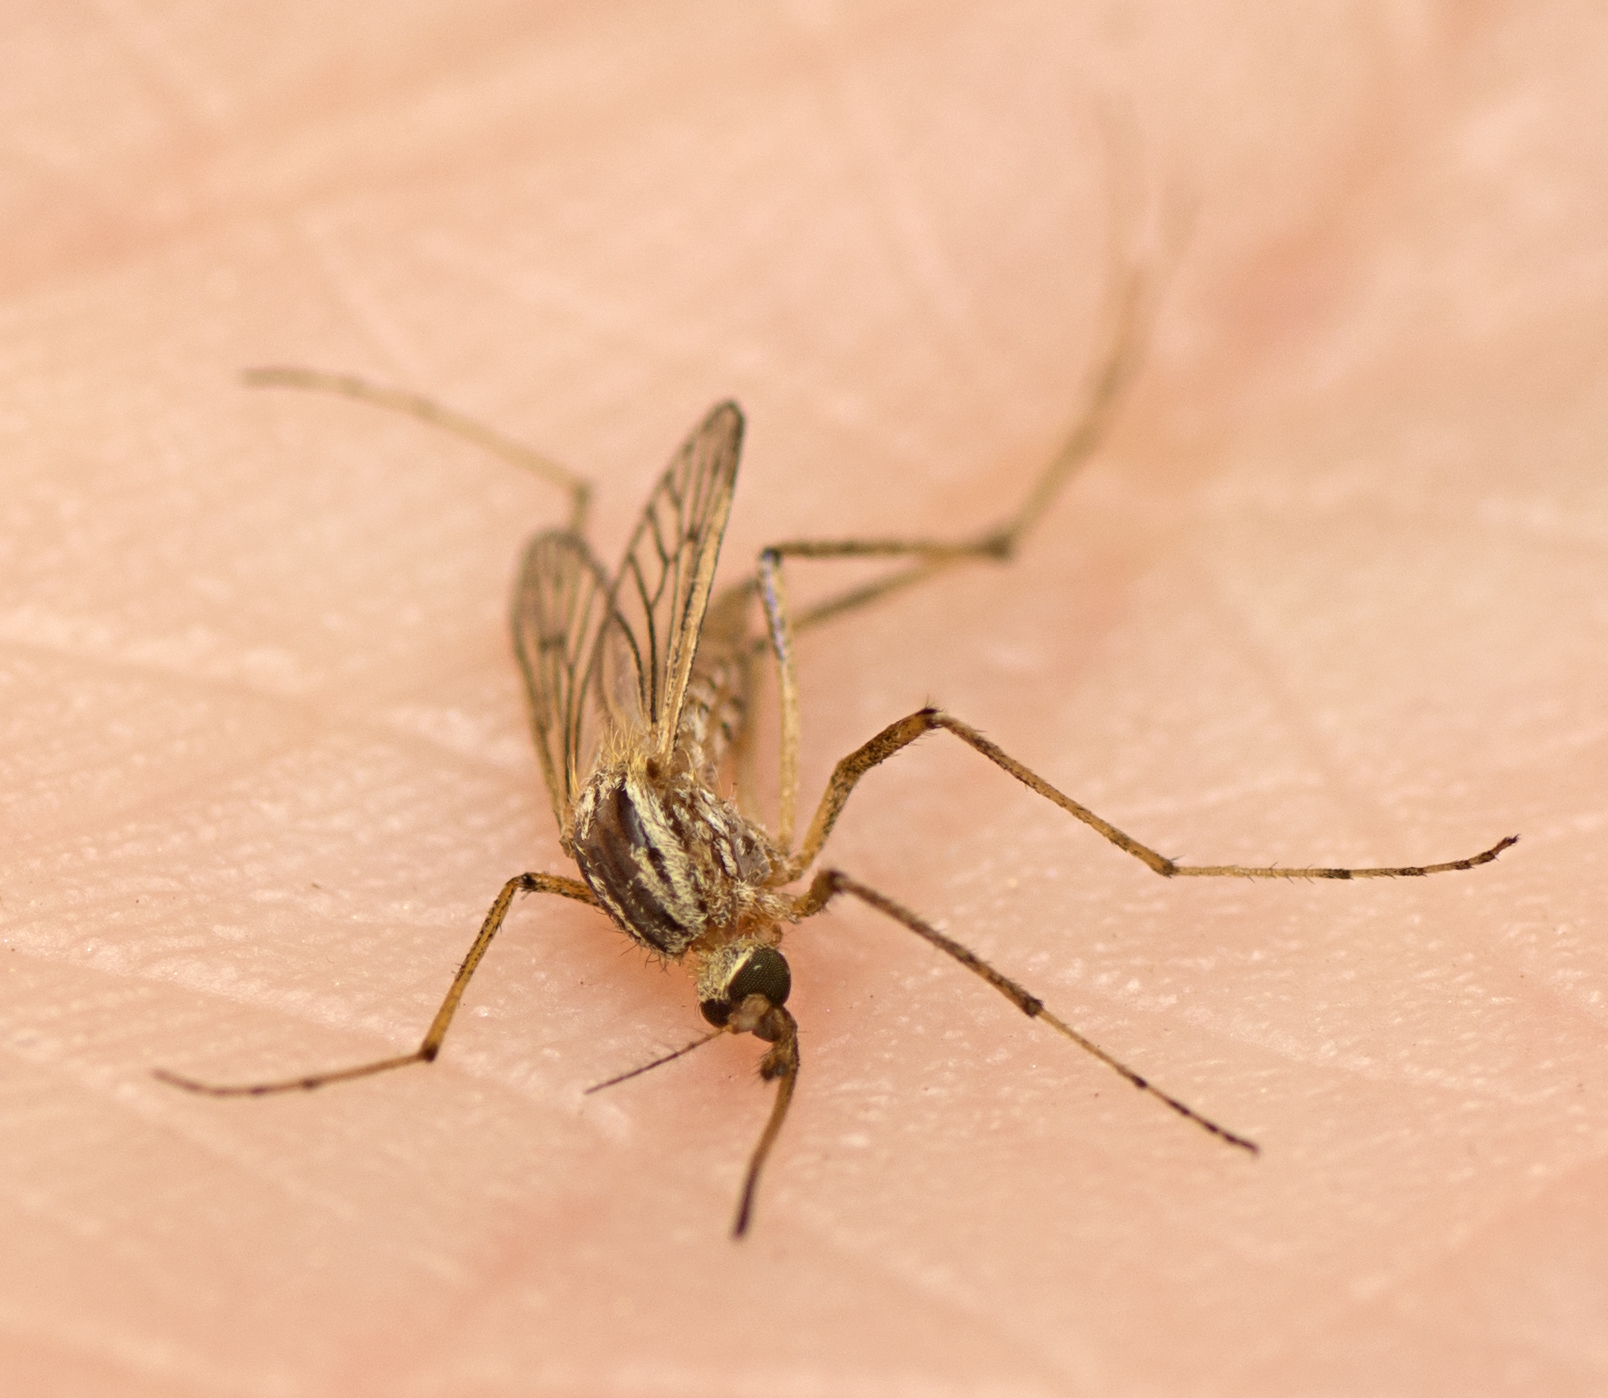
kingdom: Animalia
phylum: Arthropoda
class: Insecta
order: Diptera
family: Culicidae
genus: Aedes
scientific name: Aedes vittiger
